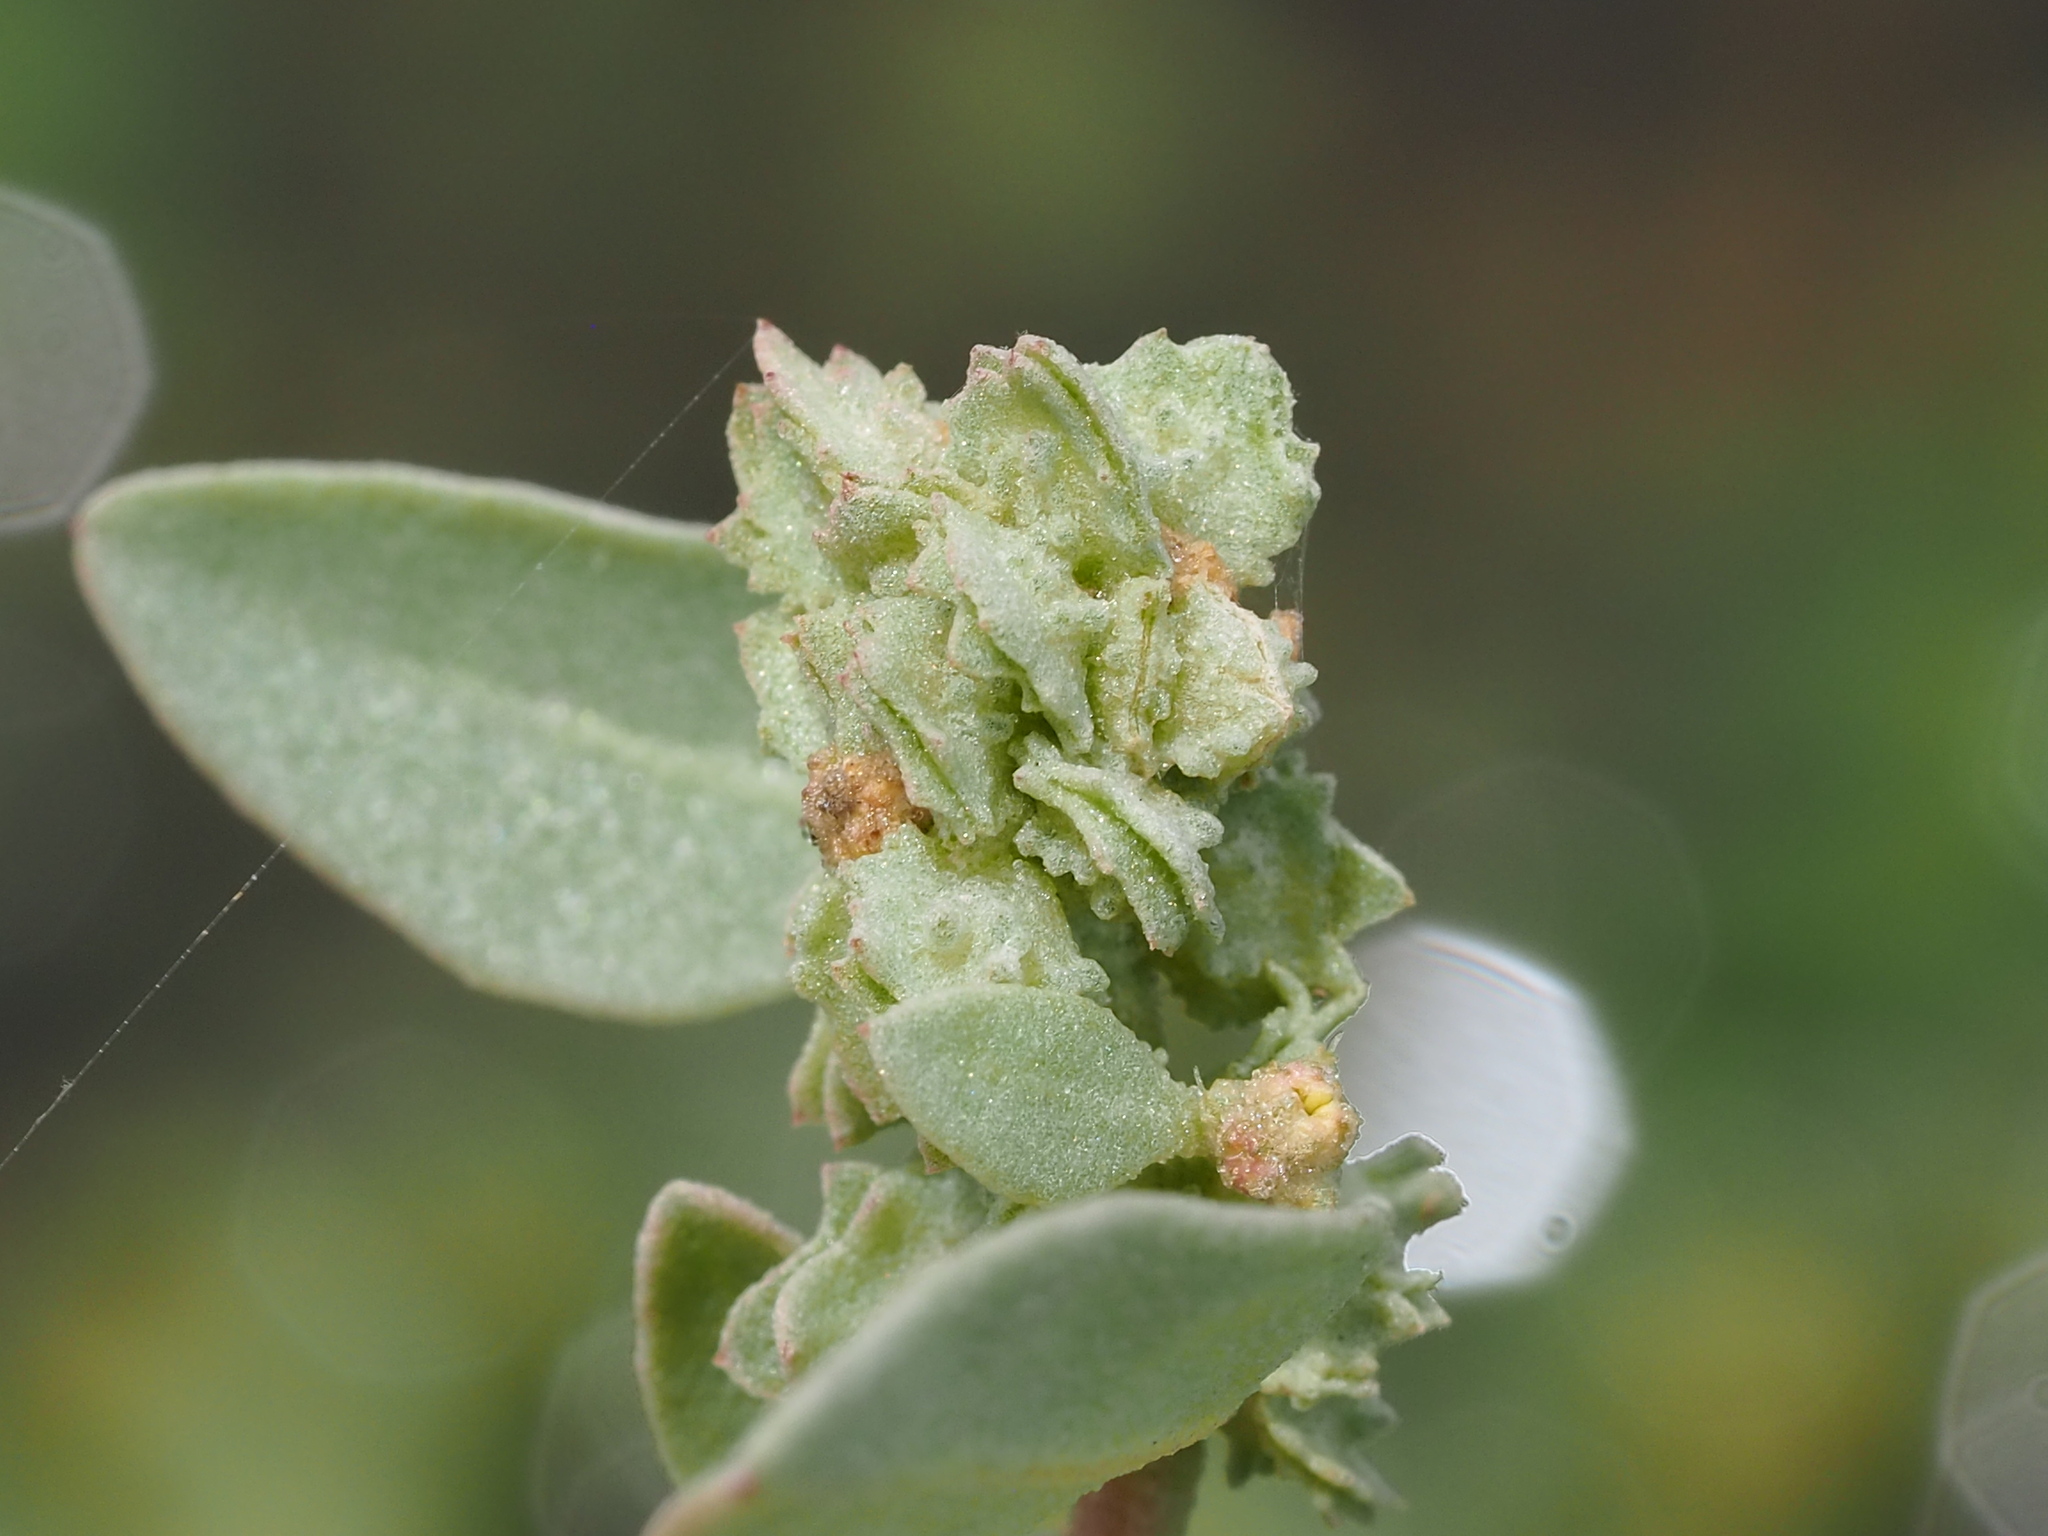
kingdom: Plantae
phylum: Tracheophyta
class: Magnoliopsida
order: Caryophyllales
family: Amaranthaceae
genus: Atriplex
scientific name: Atriplex maximowicziana
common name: Maximowicz's saltbush
